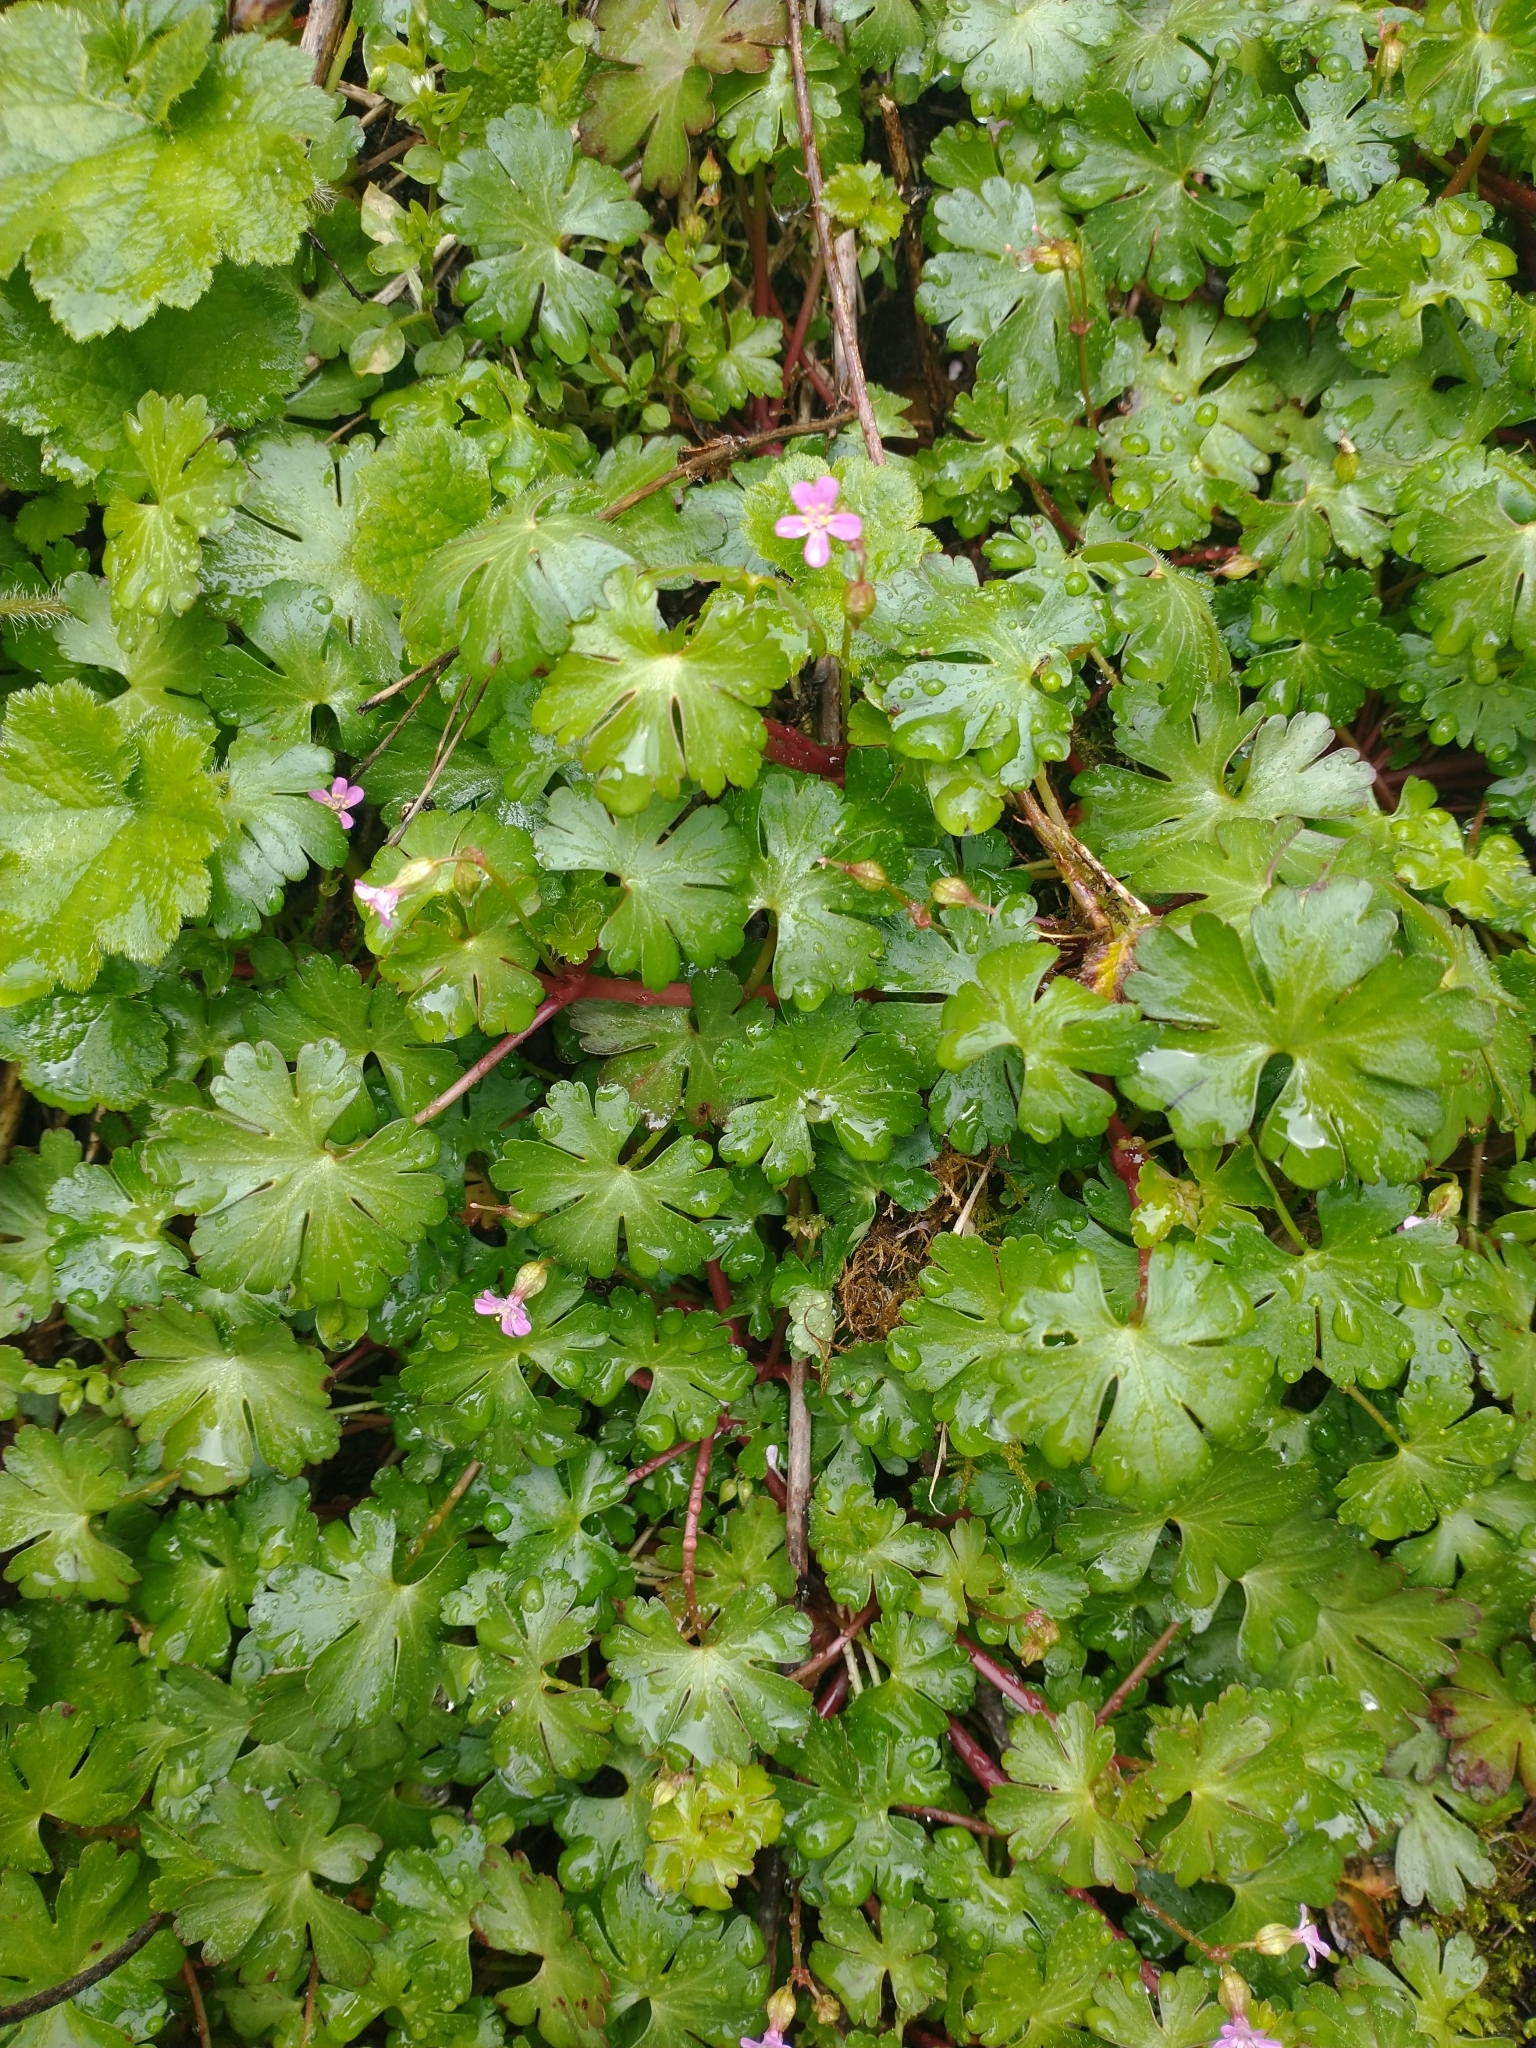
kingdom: Plantae
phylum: Tracheophyta
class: Magnoliopsida
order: Geraniales
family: Geraniaceae
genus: Geranium
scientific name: Geranium lucidum
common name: Shining crane's-bill
